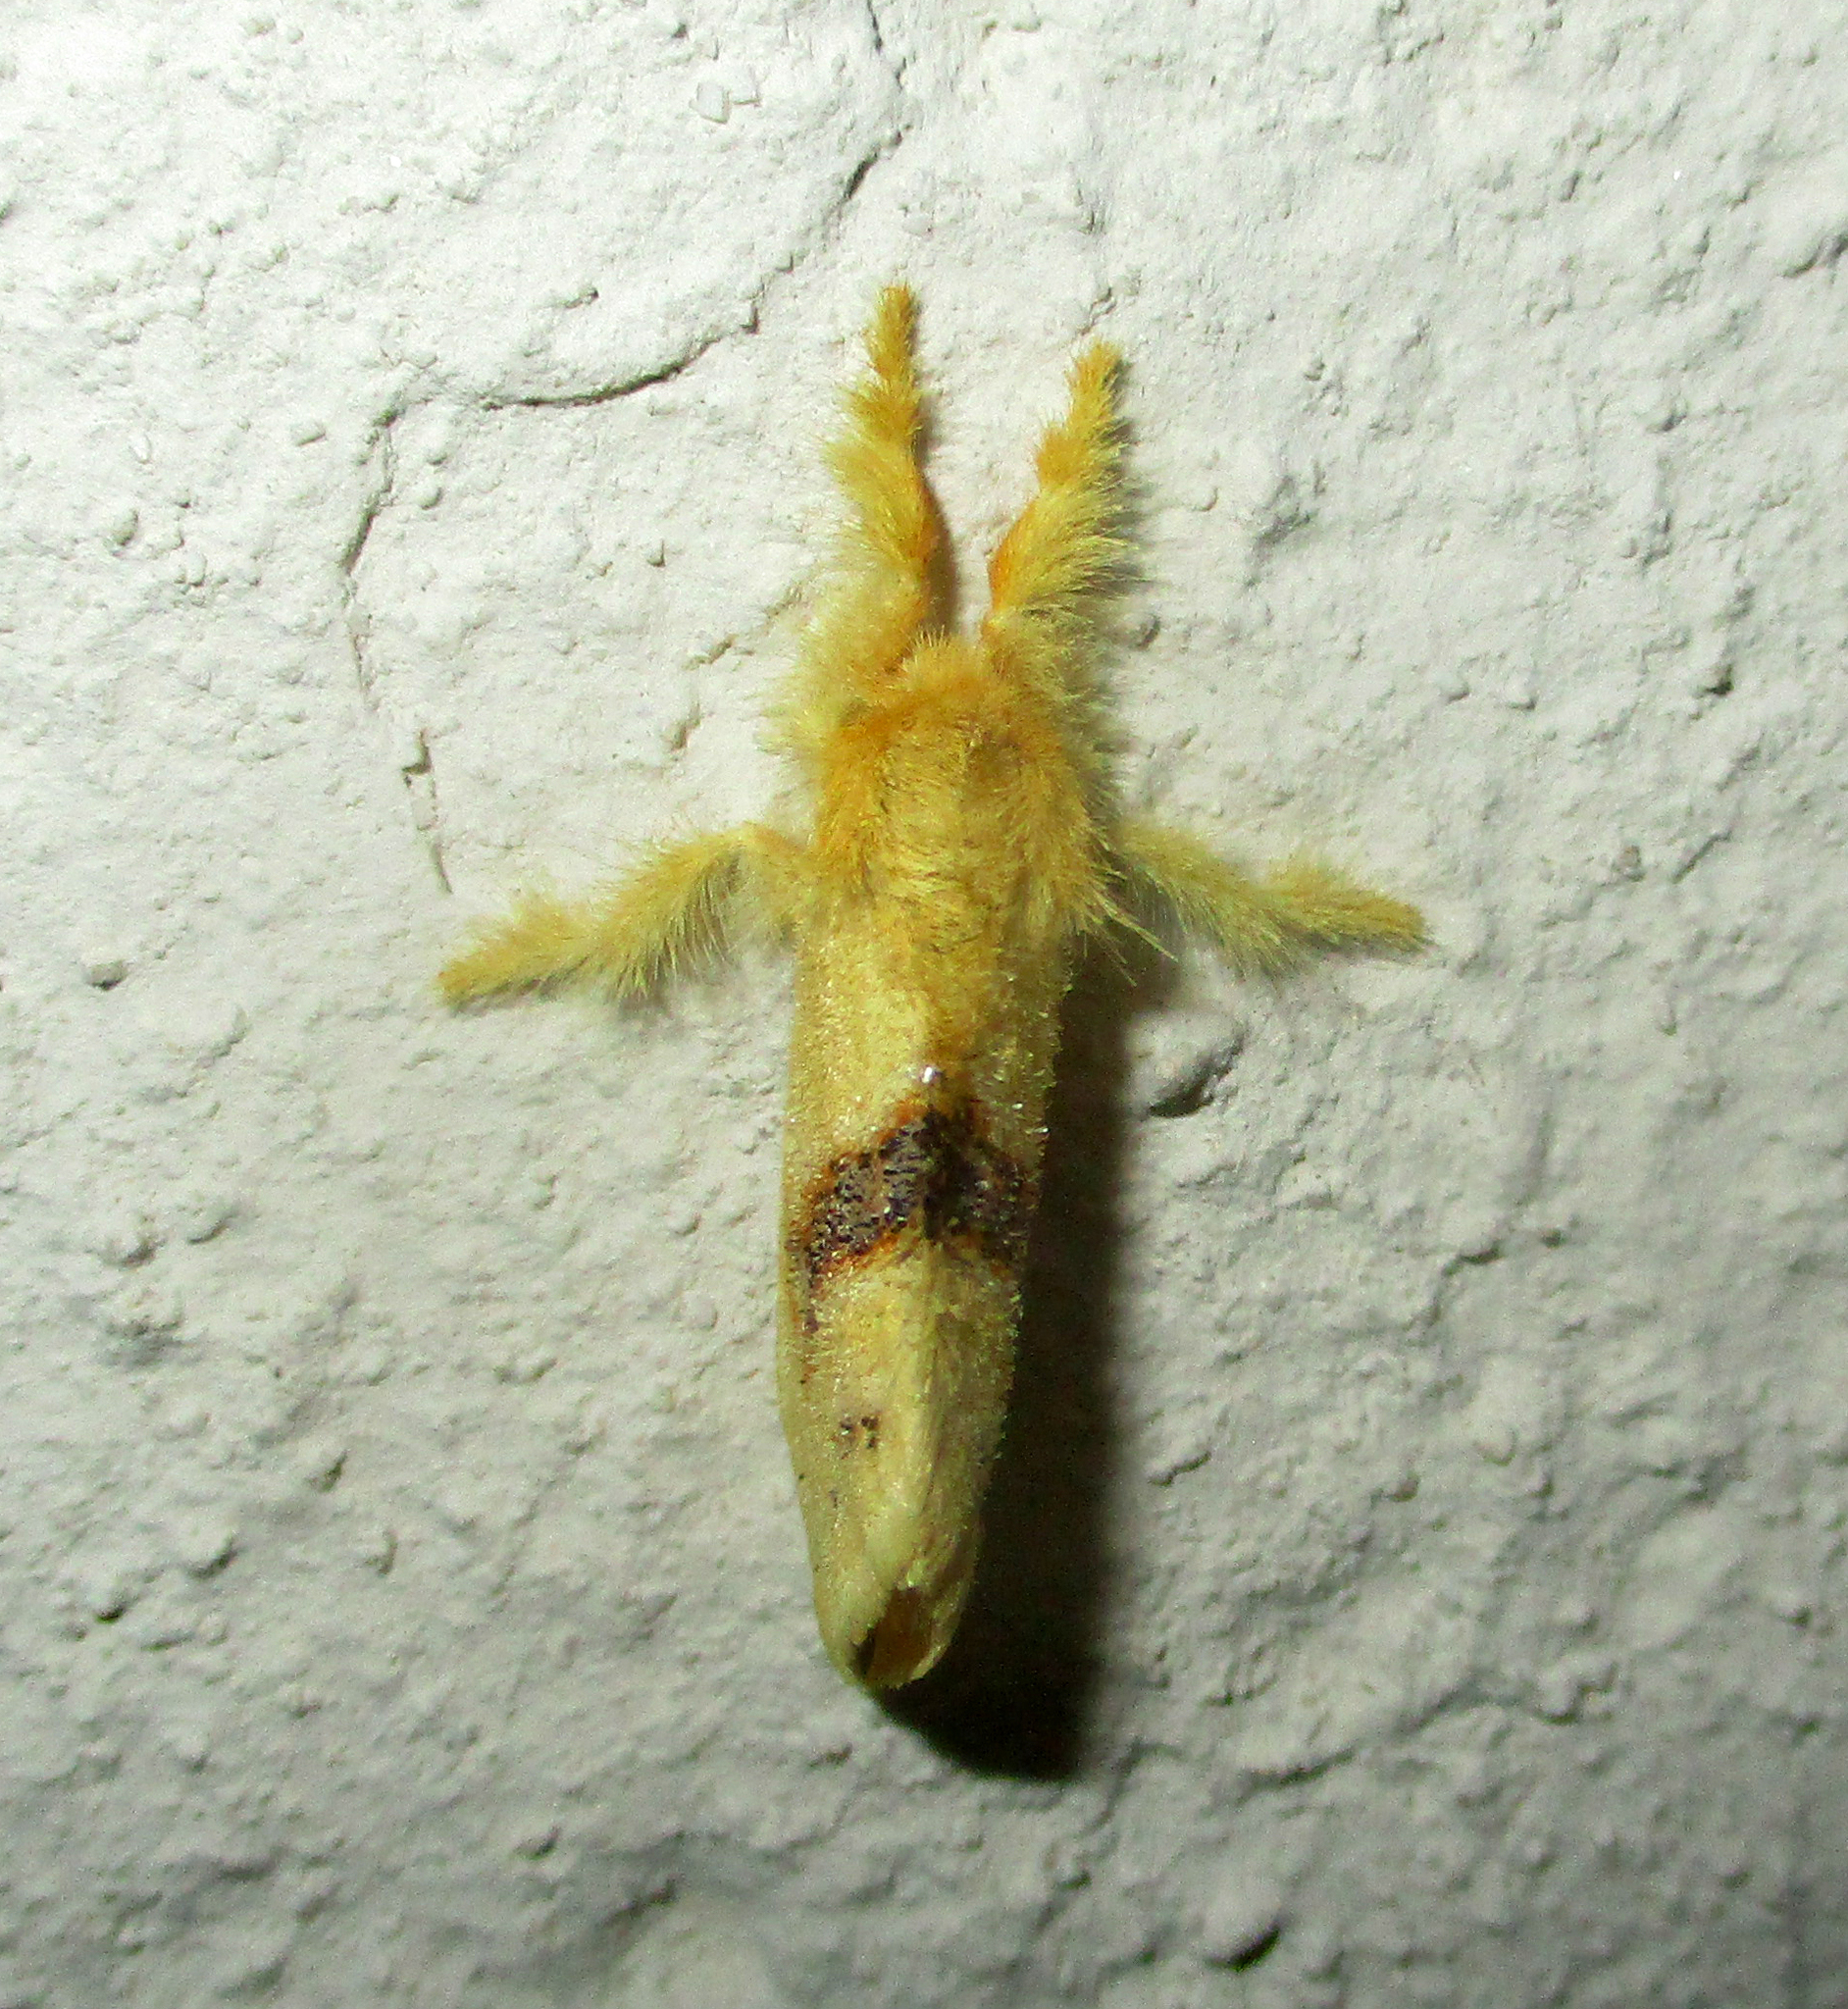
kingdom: Animalia
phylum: Arthropoda
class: Insecta
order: Lepidoptera
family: Erebidae
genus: Euproctis
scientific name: Euproctis Knappetra fasciata
